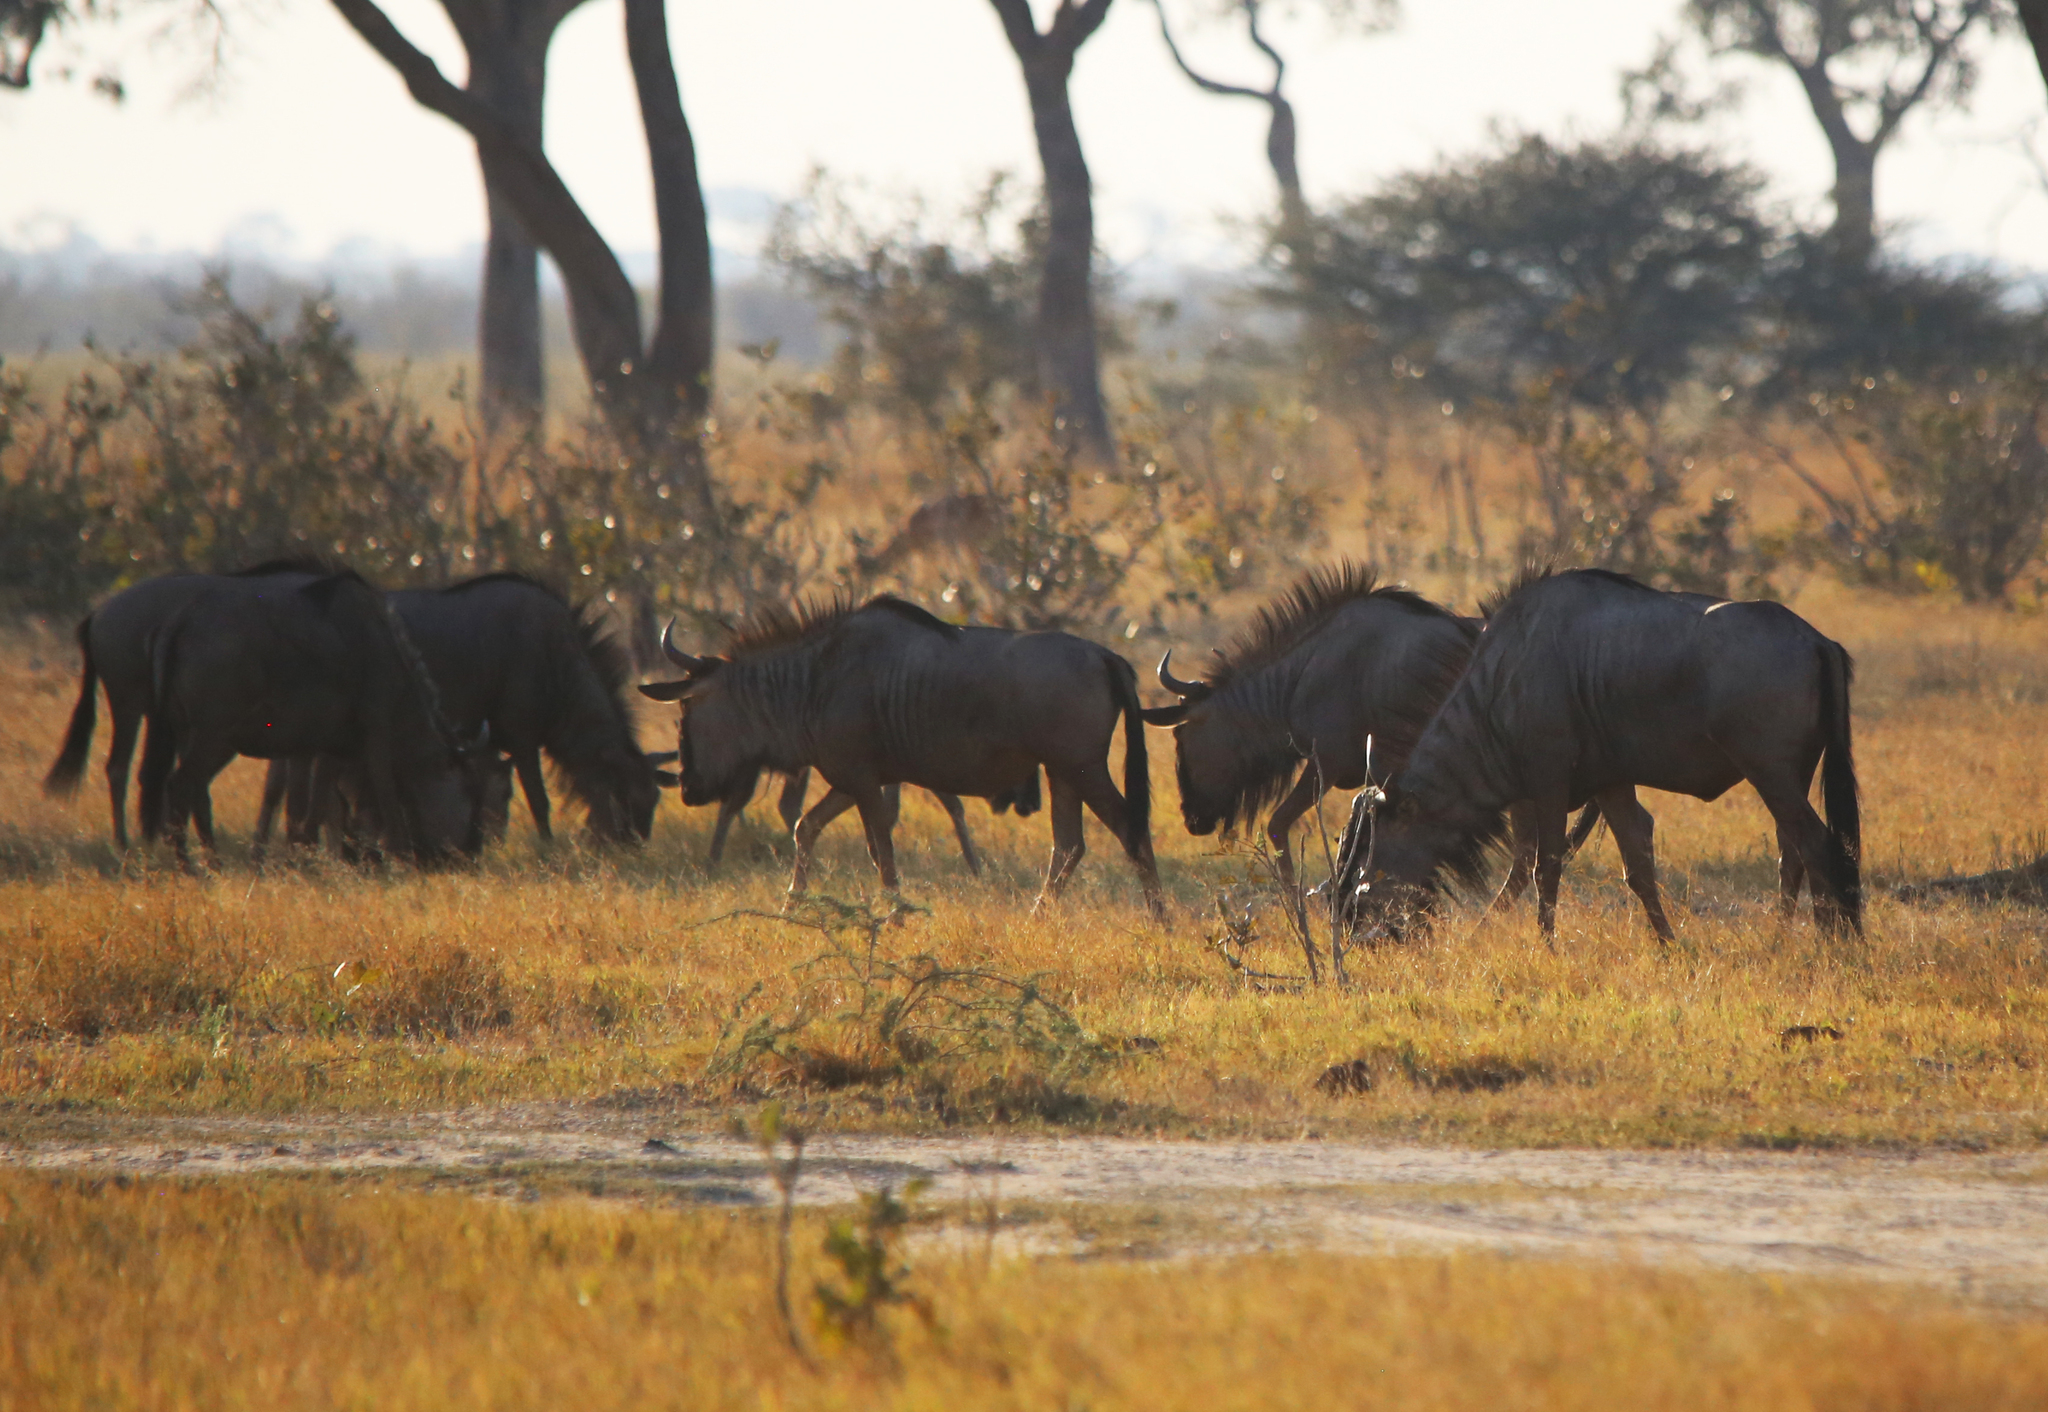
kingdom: Animalia
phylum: Chordata
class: Mammalia
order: Artiodactyla
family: Bovidae
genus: Connochaetes
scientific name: Connochaetes taurinus
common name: Blue wildebeest
